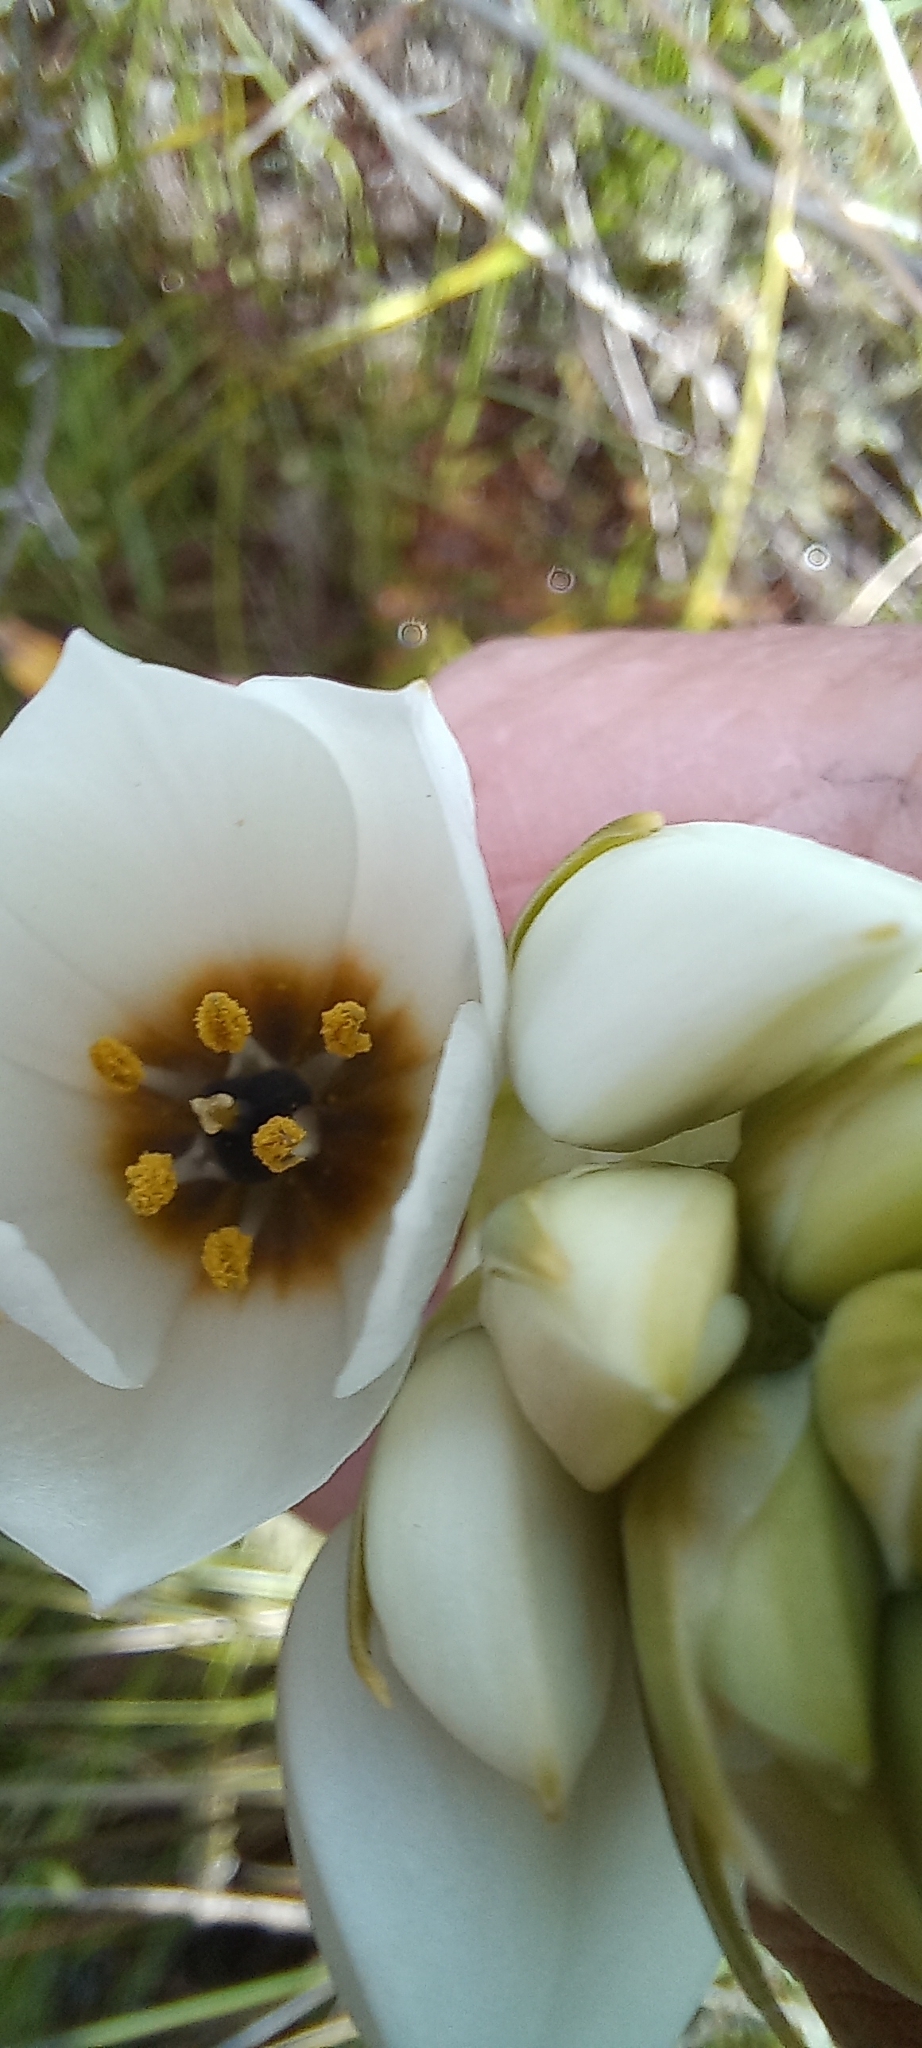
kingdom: Plantae
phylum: Tracheophyta
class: Liliopsida
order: Asparagales
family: Asparagaceae
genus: Ornithogalum
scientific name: Ornithogalum thyrsoides
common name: Chincherinchee
